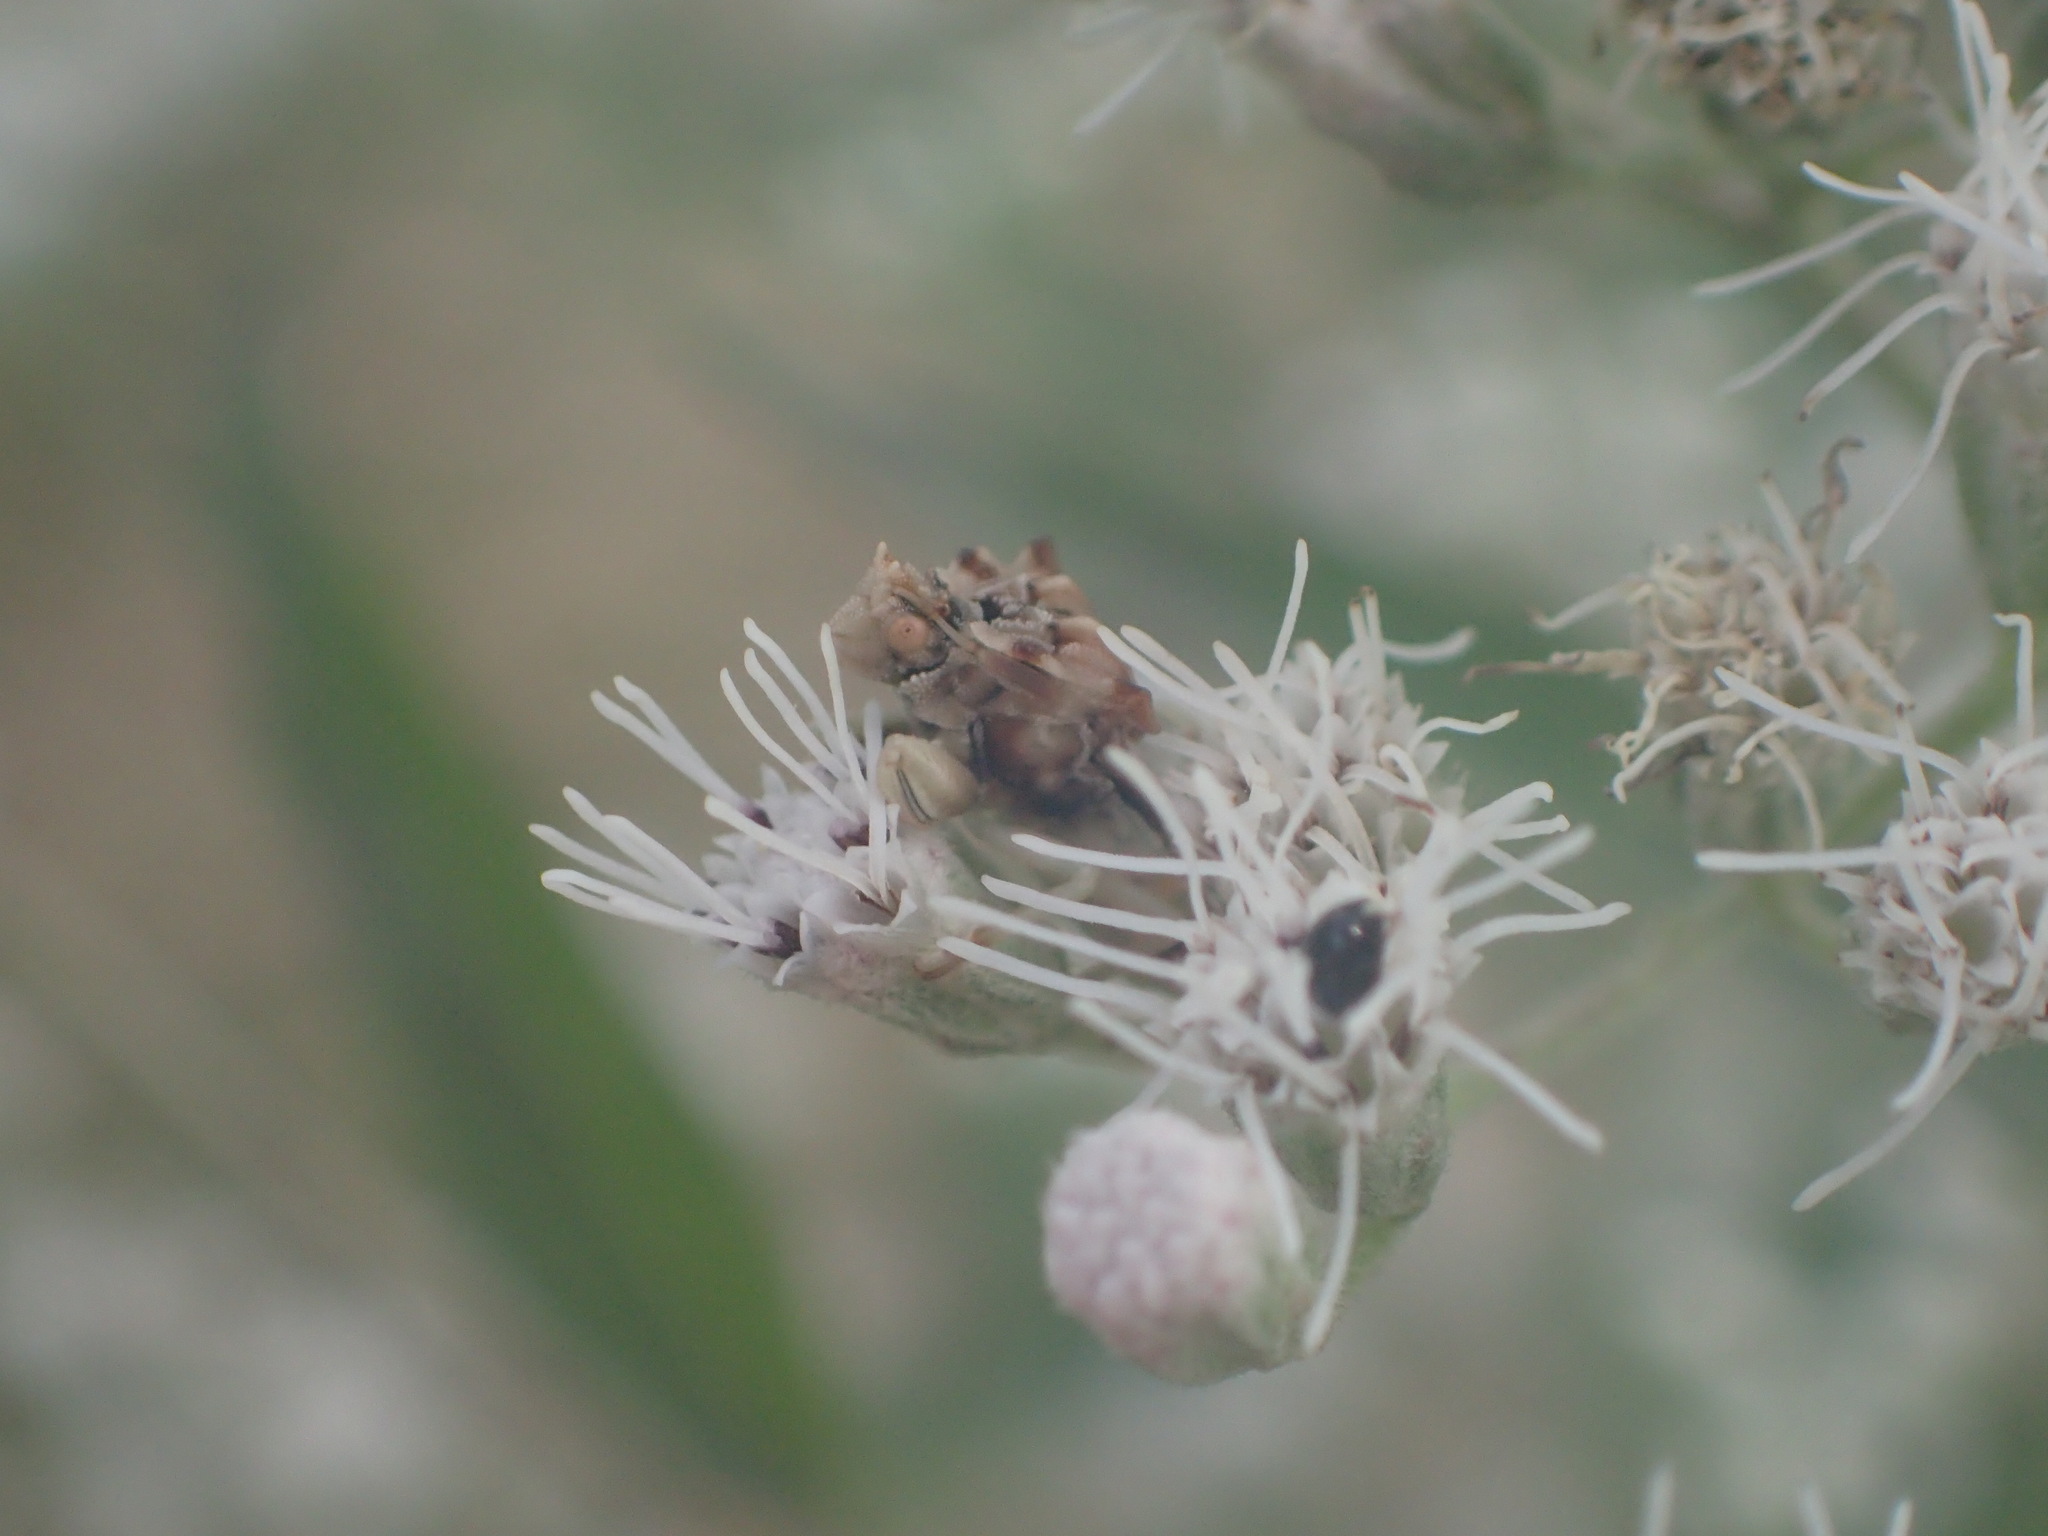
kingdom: Animalia
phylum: Arthropoda
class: Insecta
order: Hemiptera
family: Reduviidae
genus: Phymata
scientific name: Phymata fasciata
